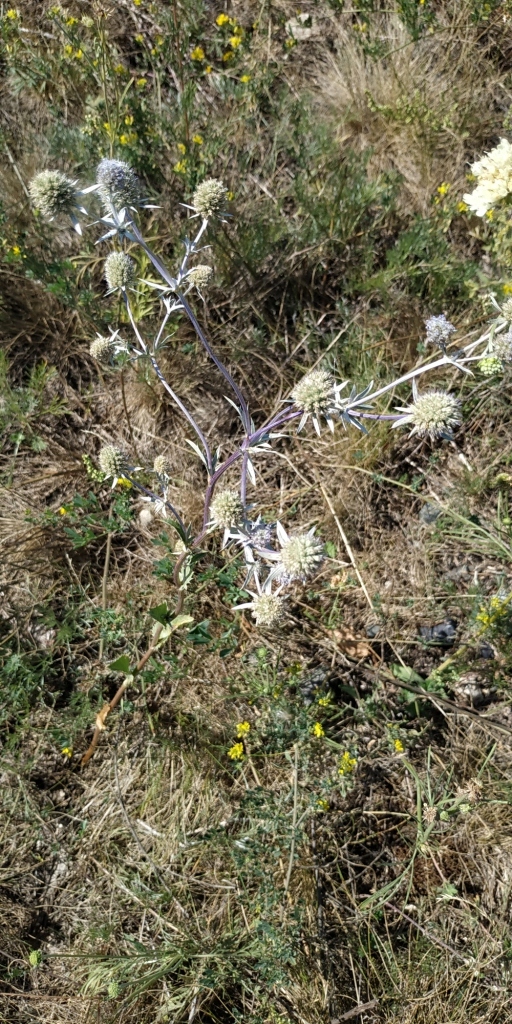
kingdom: Plantae
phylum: Tracheophyta
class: Magnoliopsida
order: Apiales
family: Apiaceae
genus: Eryngium
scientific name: Eryngium planum
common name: Blue eryngo
